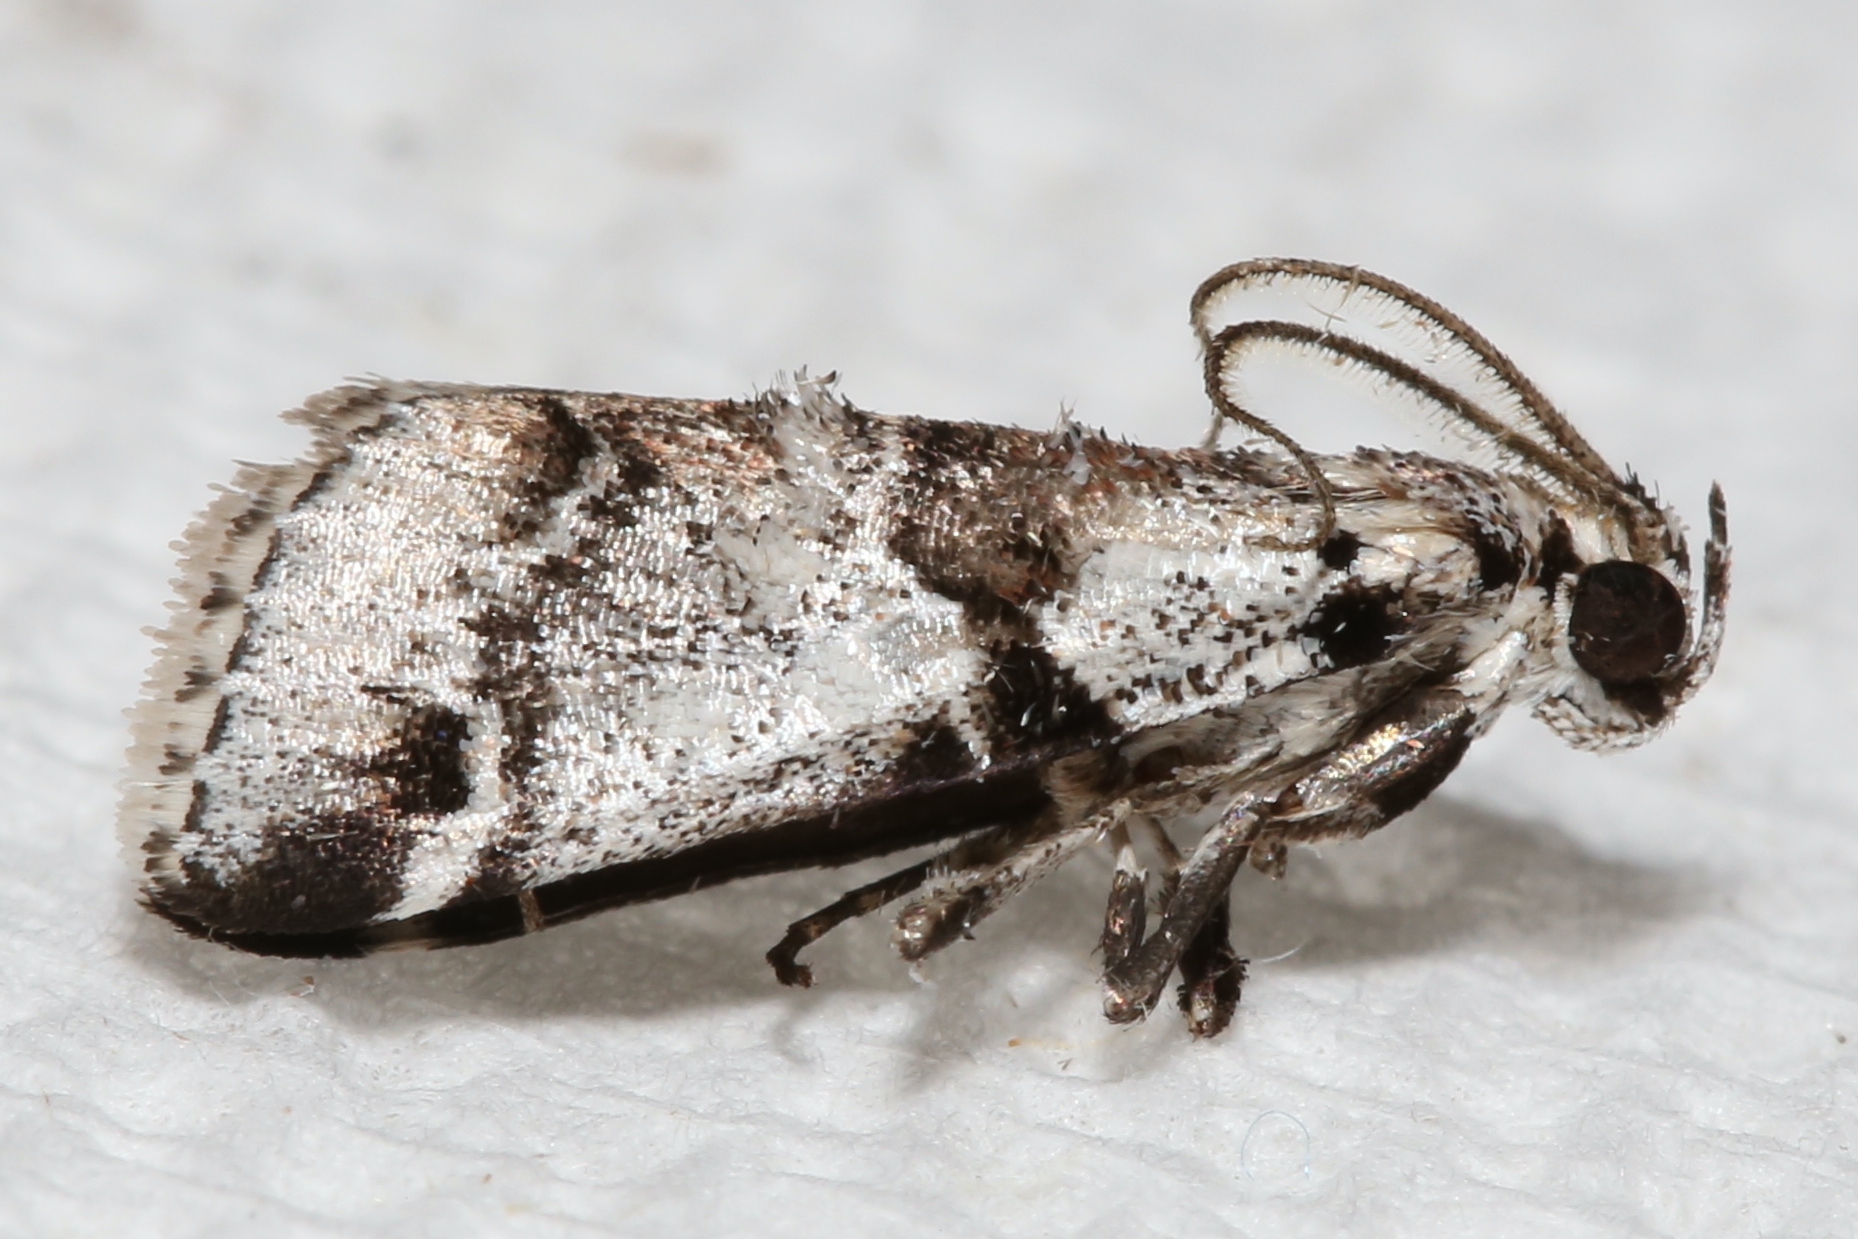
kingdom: Animalia
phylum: Arthropoda
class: Insecta
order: Lepidoptera
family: Pyralidae
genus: Tallula
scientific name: Tallula atrifascialis
